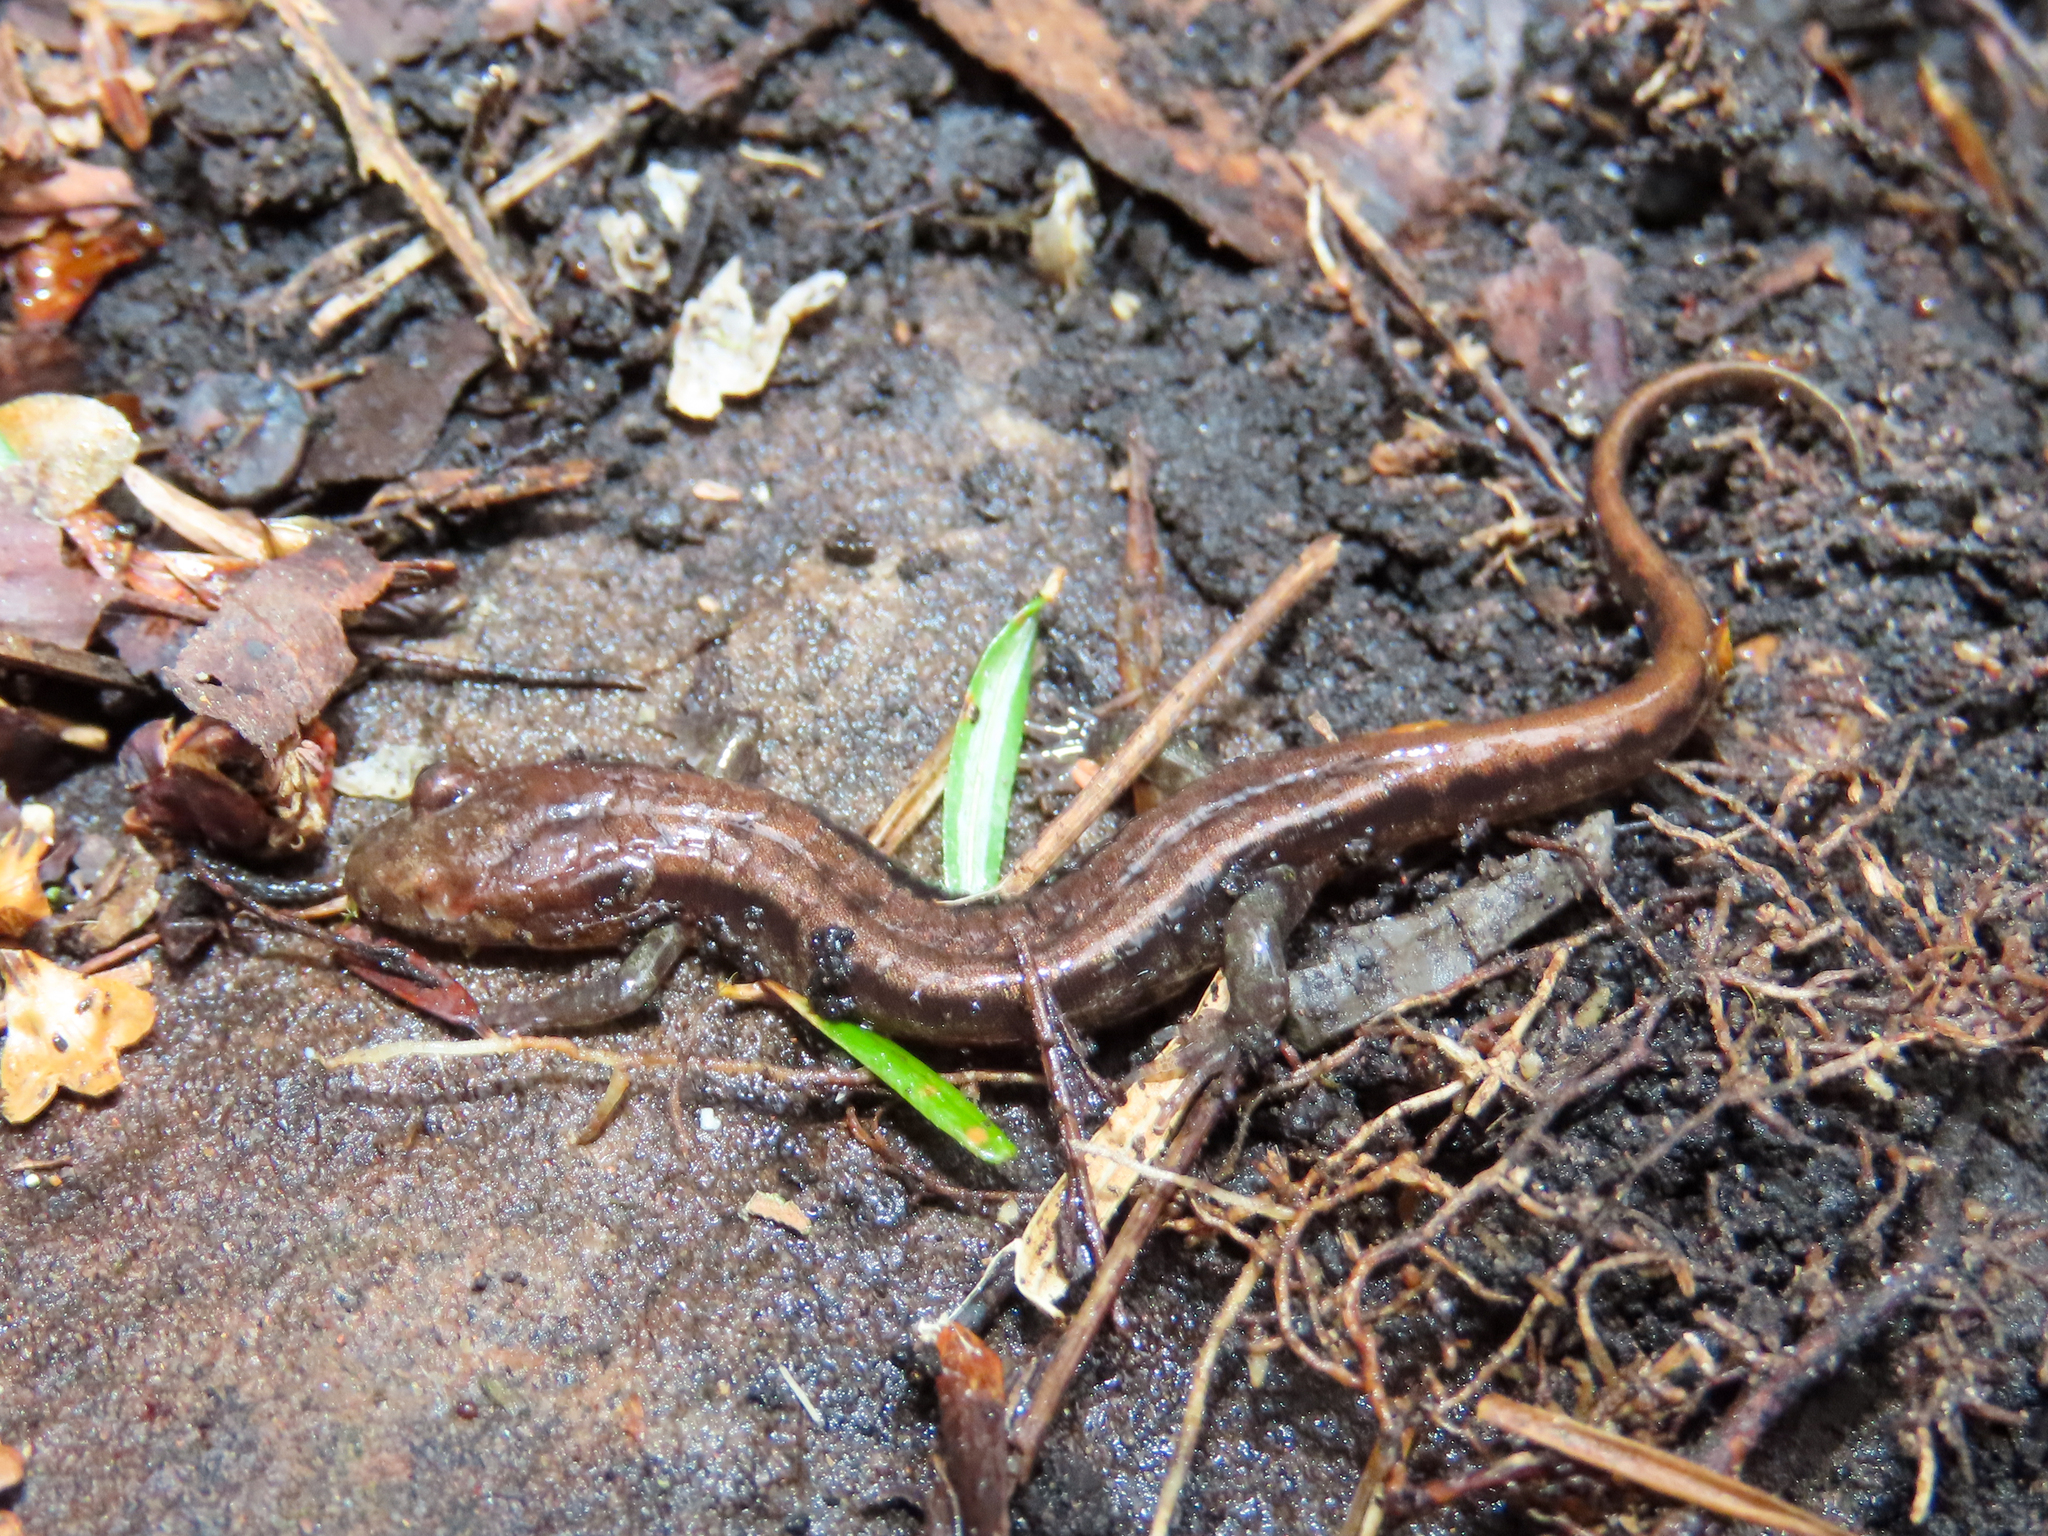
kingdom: Animalia
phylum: Chordata
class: Amphibia
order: Caudata
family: Plethodontidae
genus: Desmognathus
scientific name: Desmognathus ochrophaeus
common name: Allegheny mountain dusky salamander
